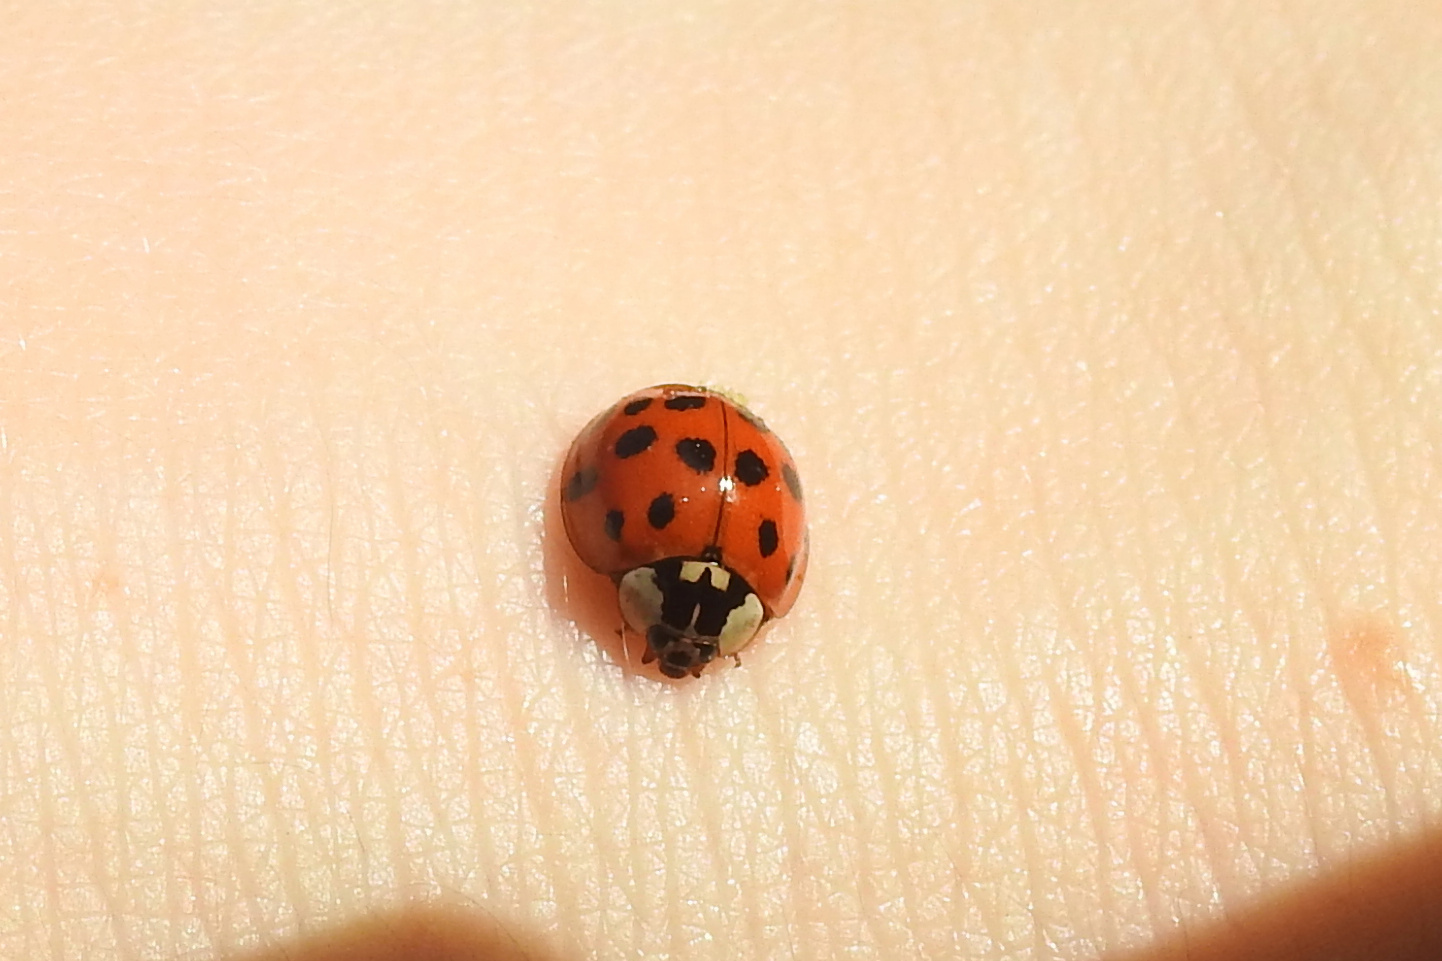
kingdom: Animalia
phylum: Arthropoda
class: Insecta
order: Coleoptera
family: Coccinellidae
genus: Harmonia
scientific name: Harmonia axyridis
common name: Harlequin ladybird
